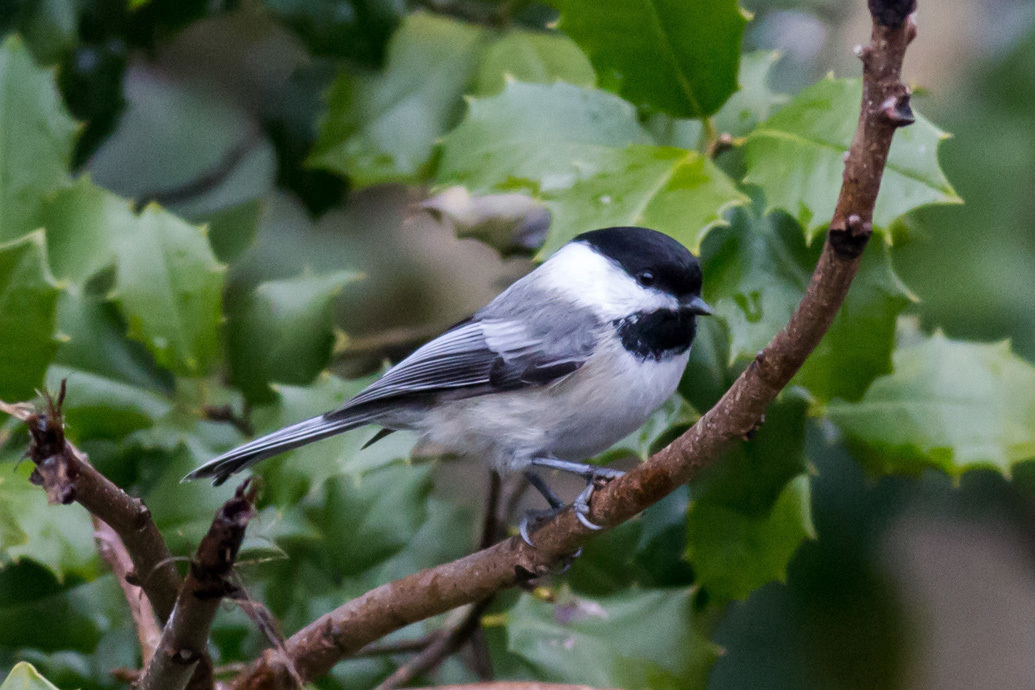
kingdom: Animalia
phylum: Chordata
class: Aves
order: Passeriformes
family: Paridae
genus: Poecile
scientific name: Poecile atricapillus
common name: Black-capped chickadee
